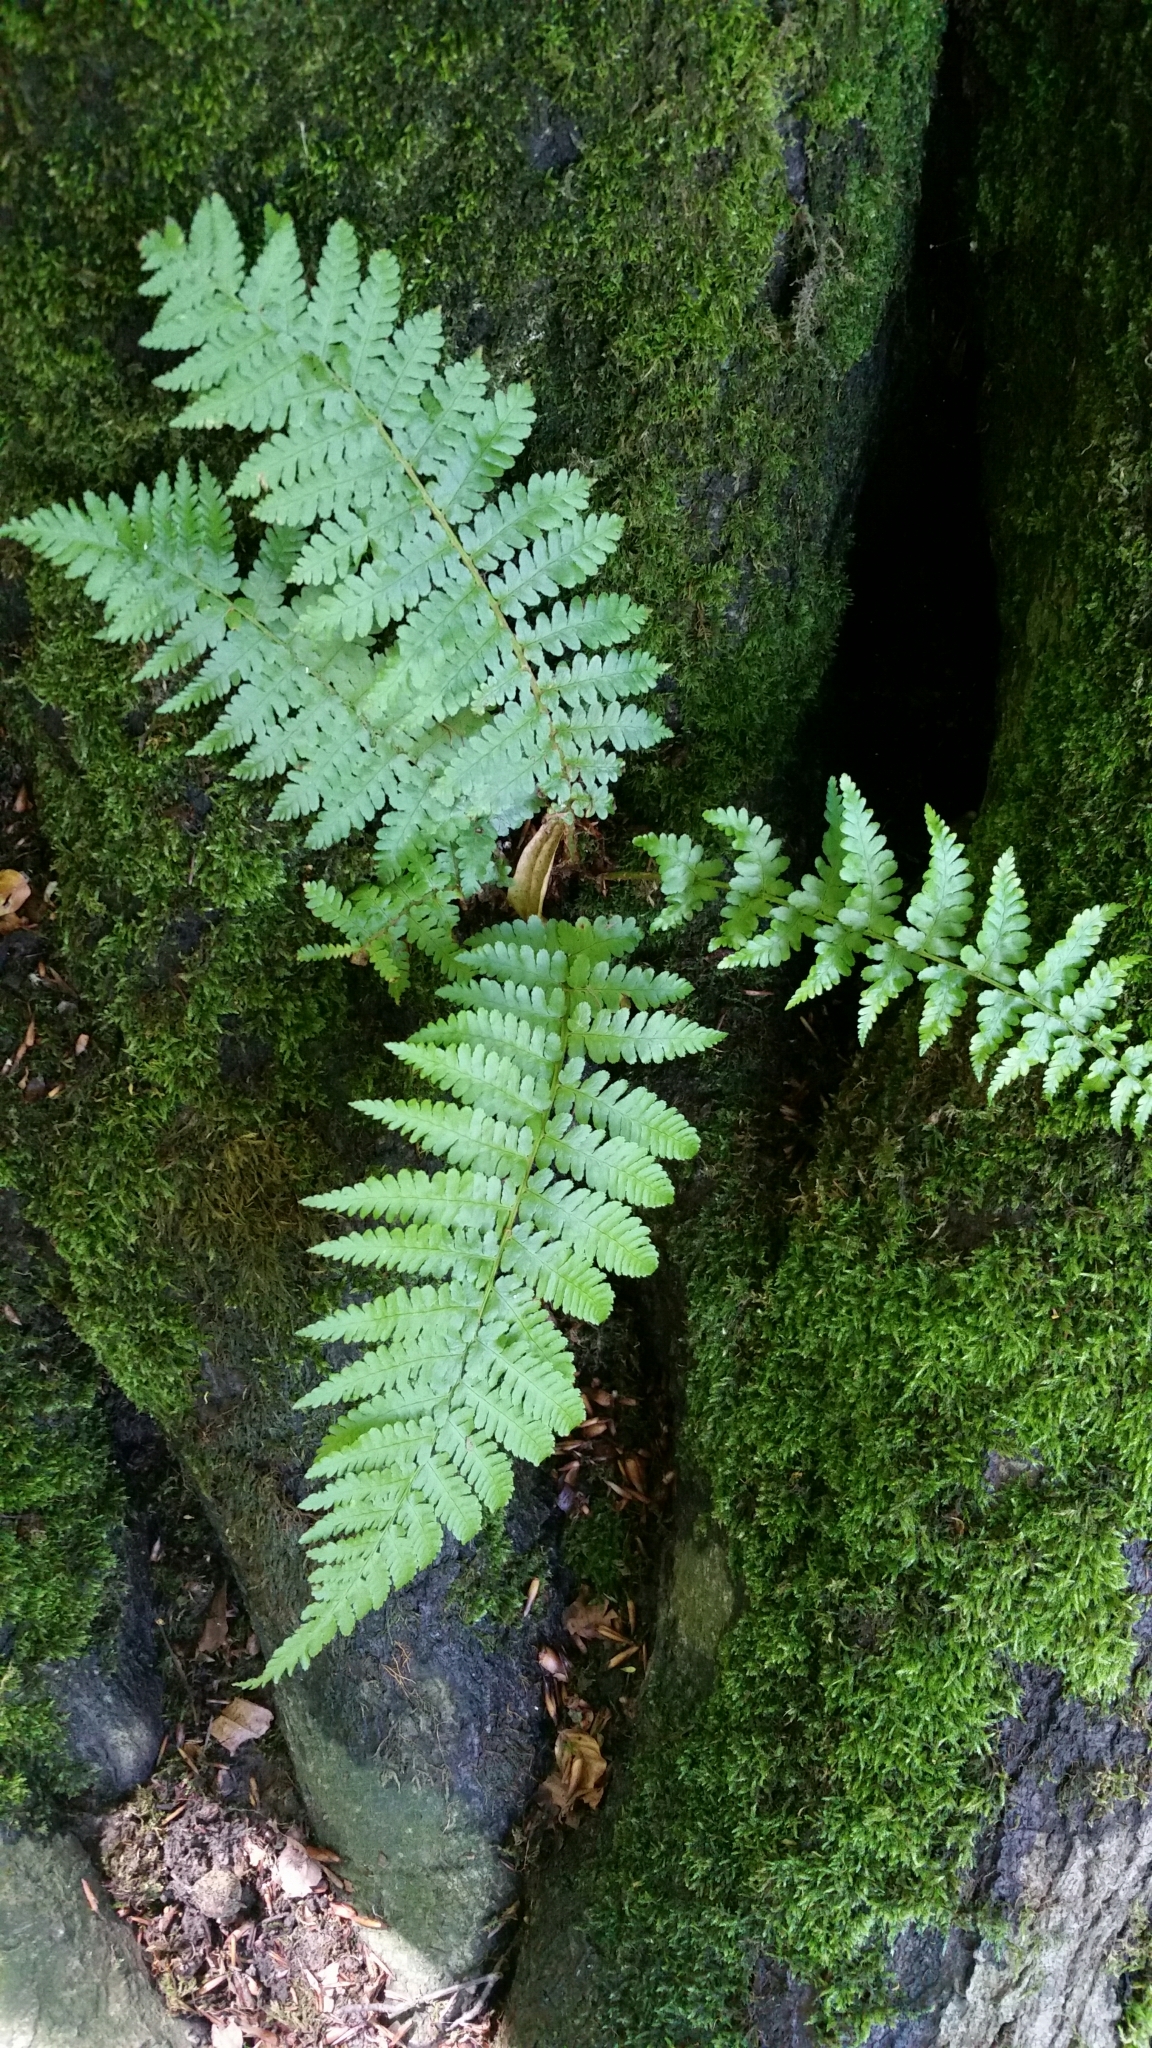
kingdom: Plantae
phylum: Tracheophyta
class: Polypodiopsida
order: Polypodiales
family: Dryopteridaceae
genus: Dryopteris
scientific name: Dryopteris filix-mas
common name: Male fern
